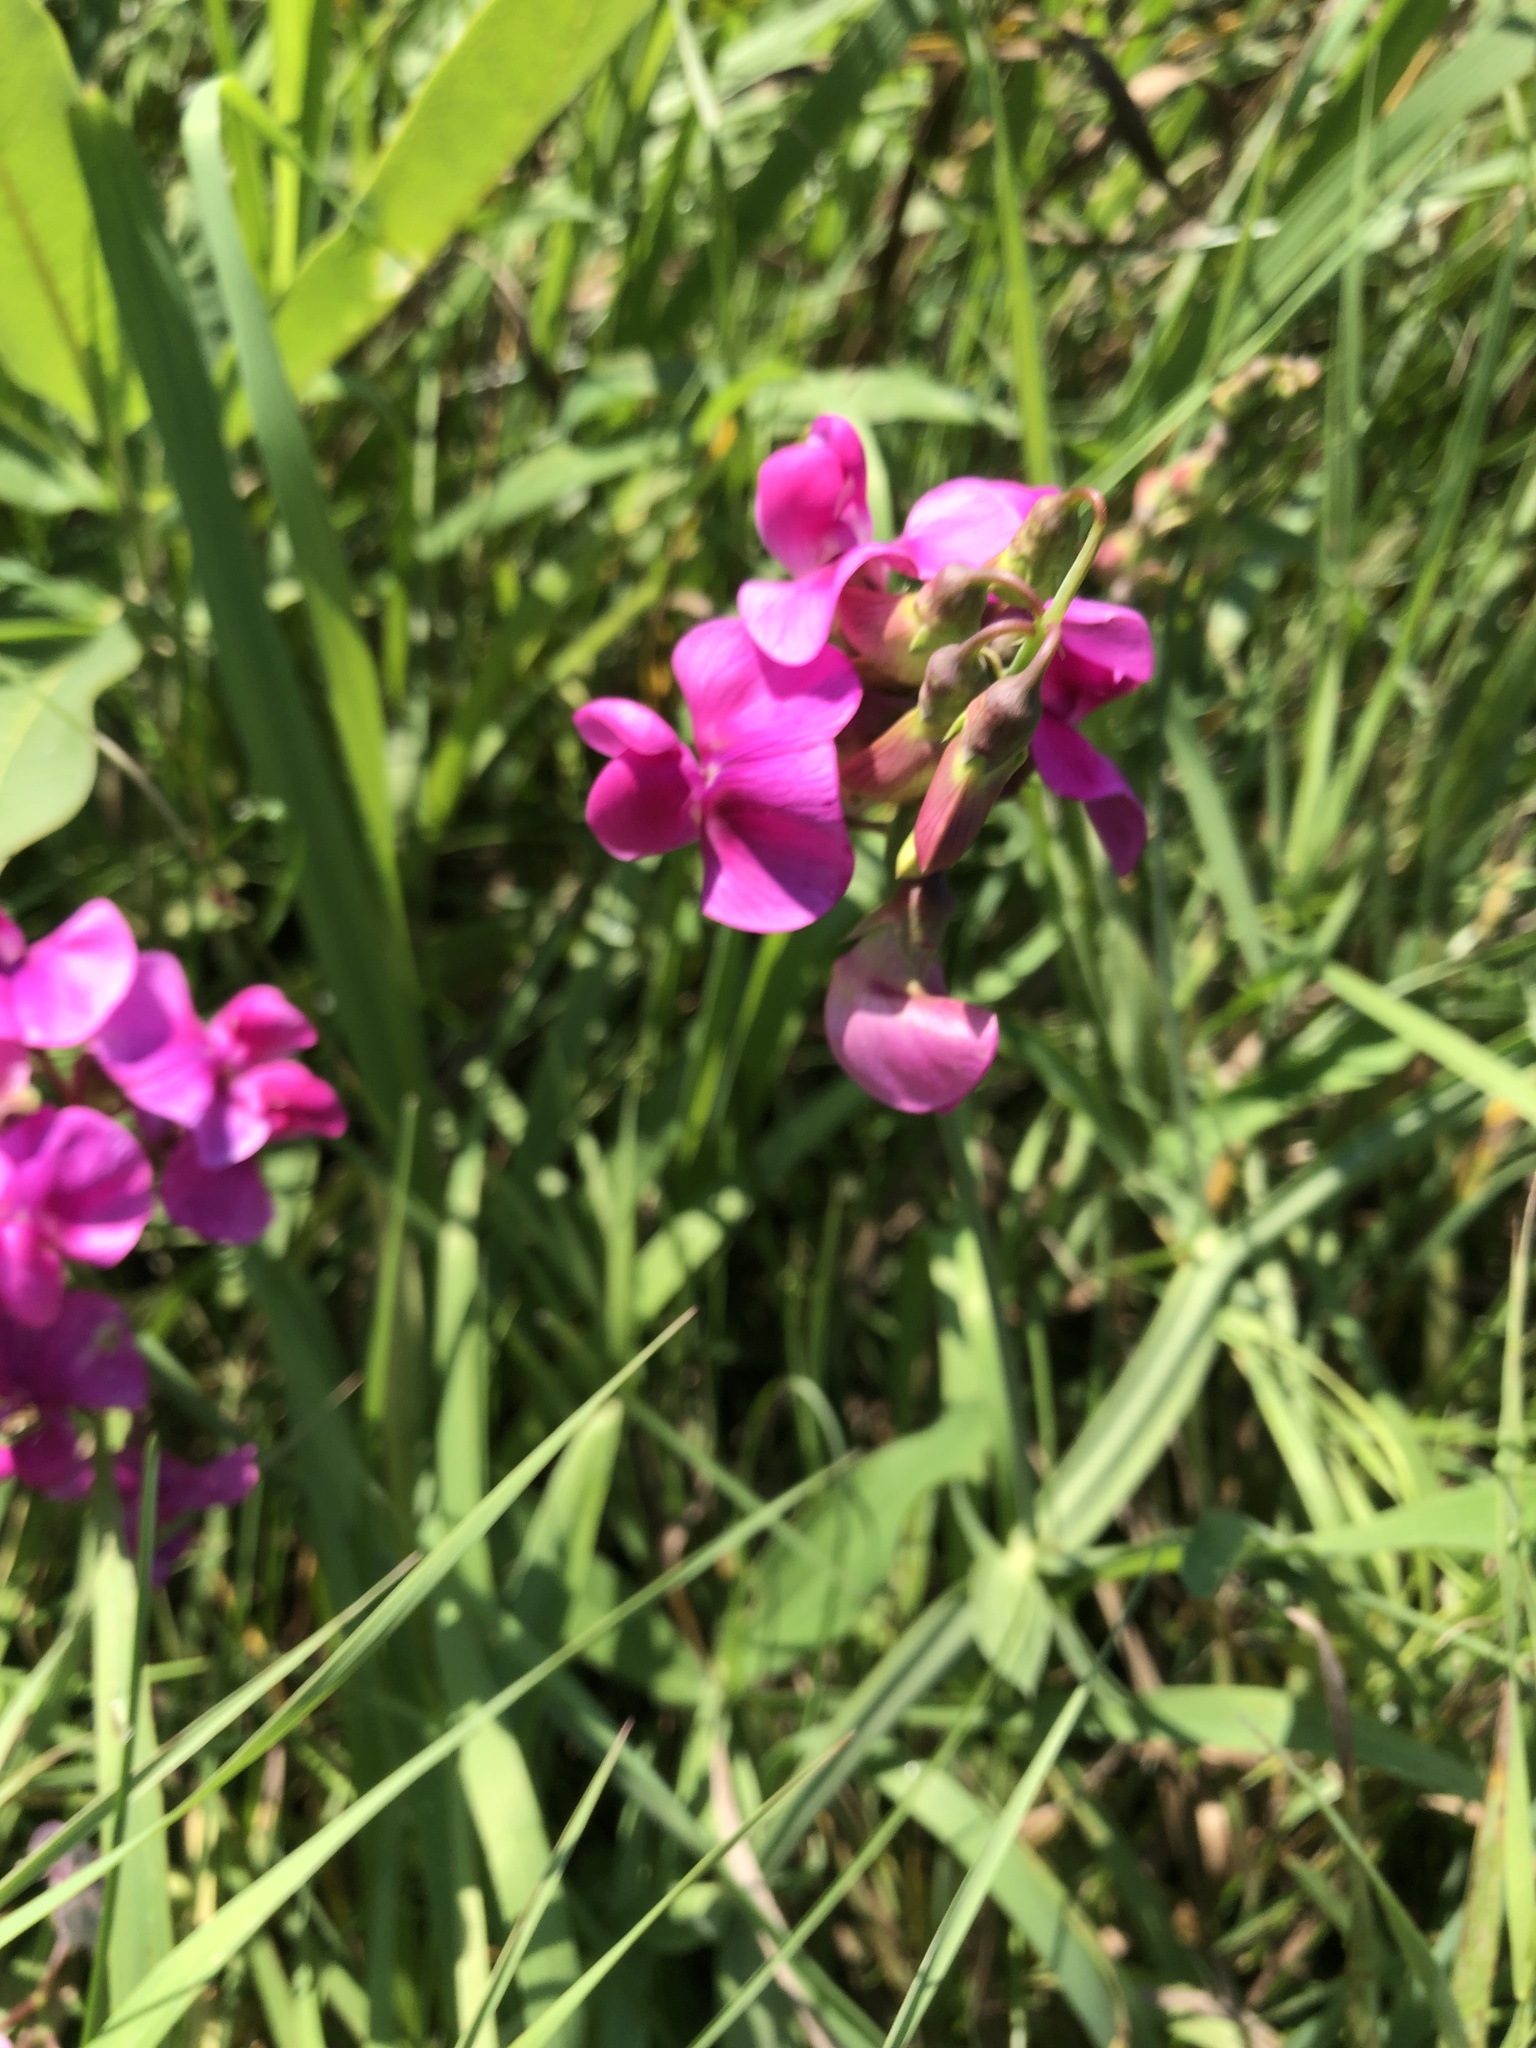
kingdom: Plantae
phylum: Tracheophyta
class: Magnoliopsida
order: Fabales
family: Fabaceae
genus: Lathyrus
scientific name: Lathyrus latifolius
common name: Perennial pea
